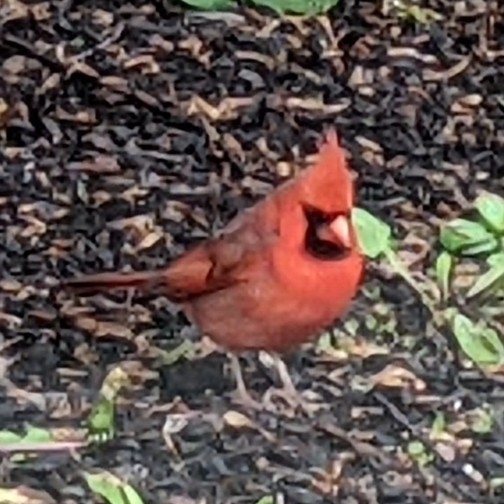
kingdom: Animalia
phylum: Chordata
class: Aves
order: Passeriformes
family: Cardinalidae
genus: Cardinalis
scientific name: Cardinalis cardinalis
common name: Northern cardinal
